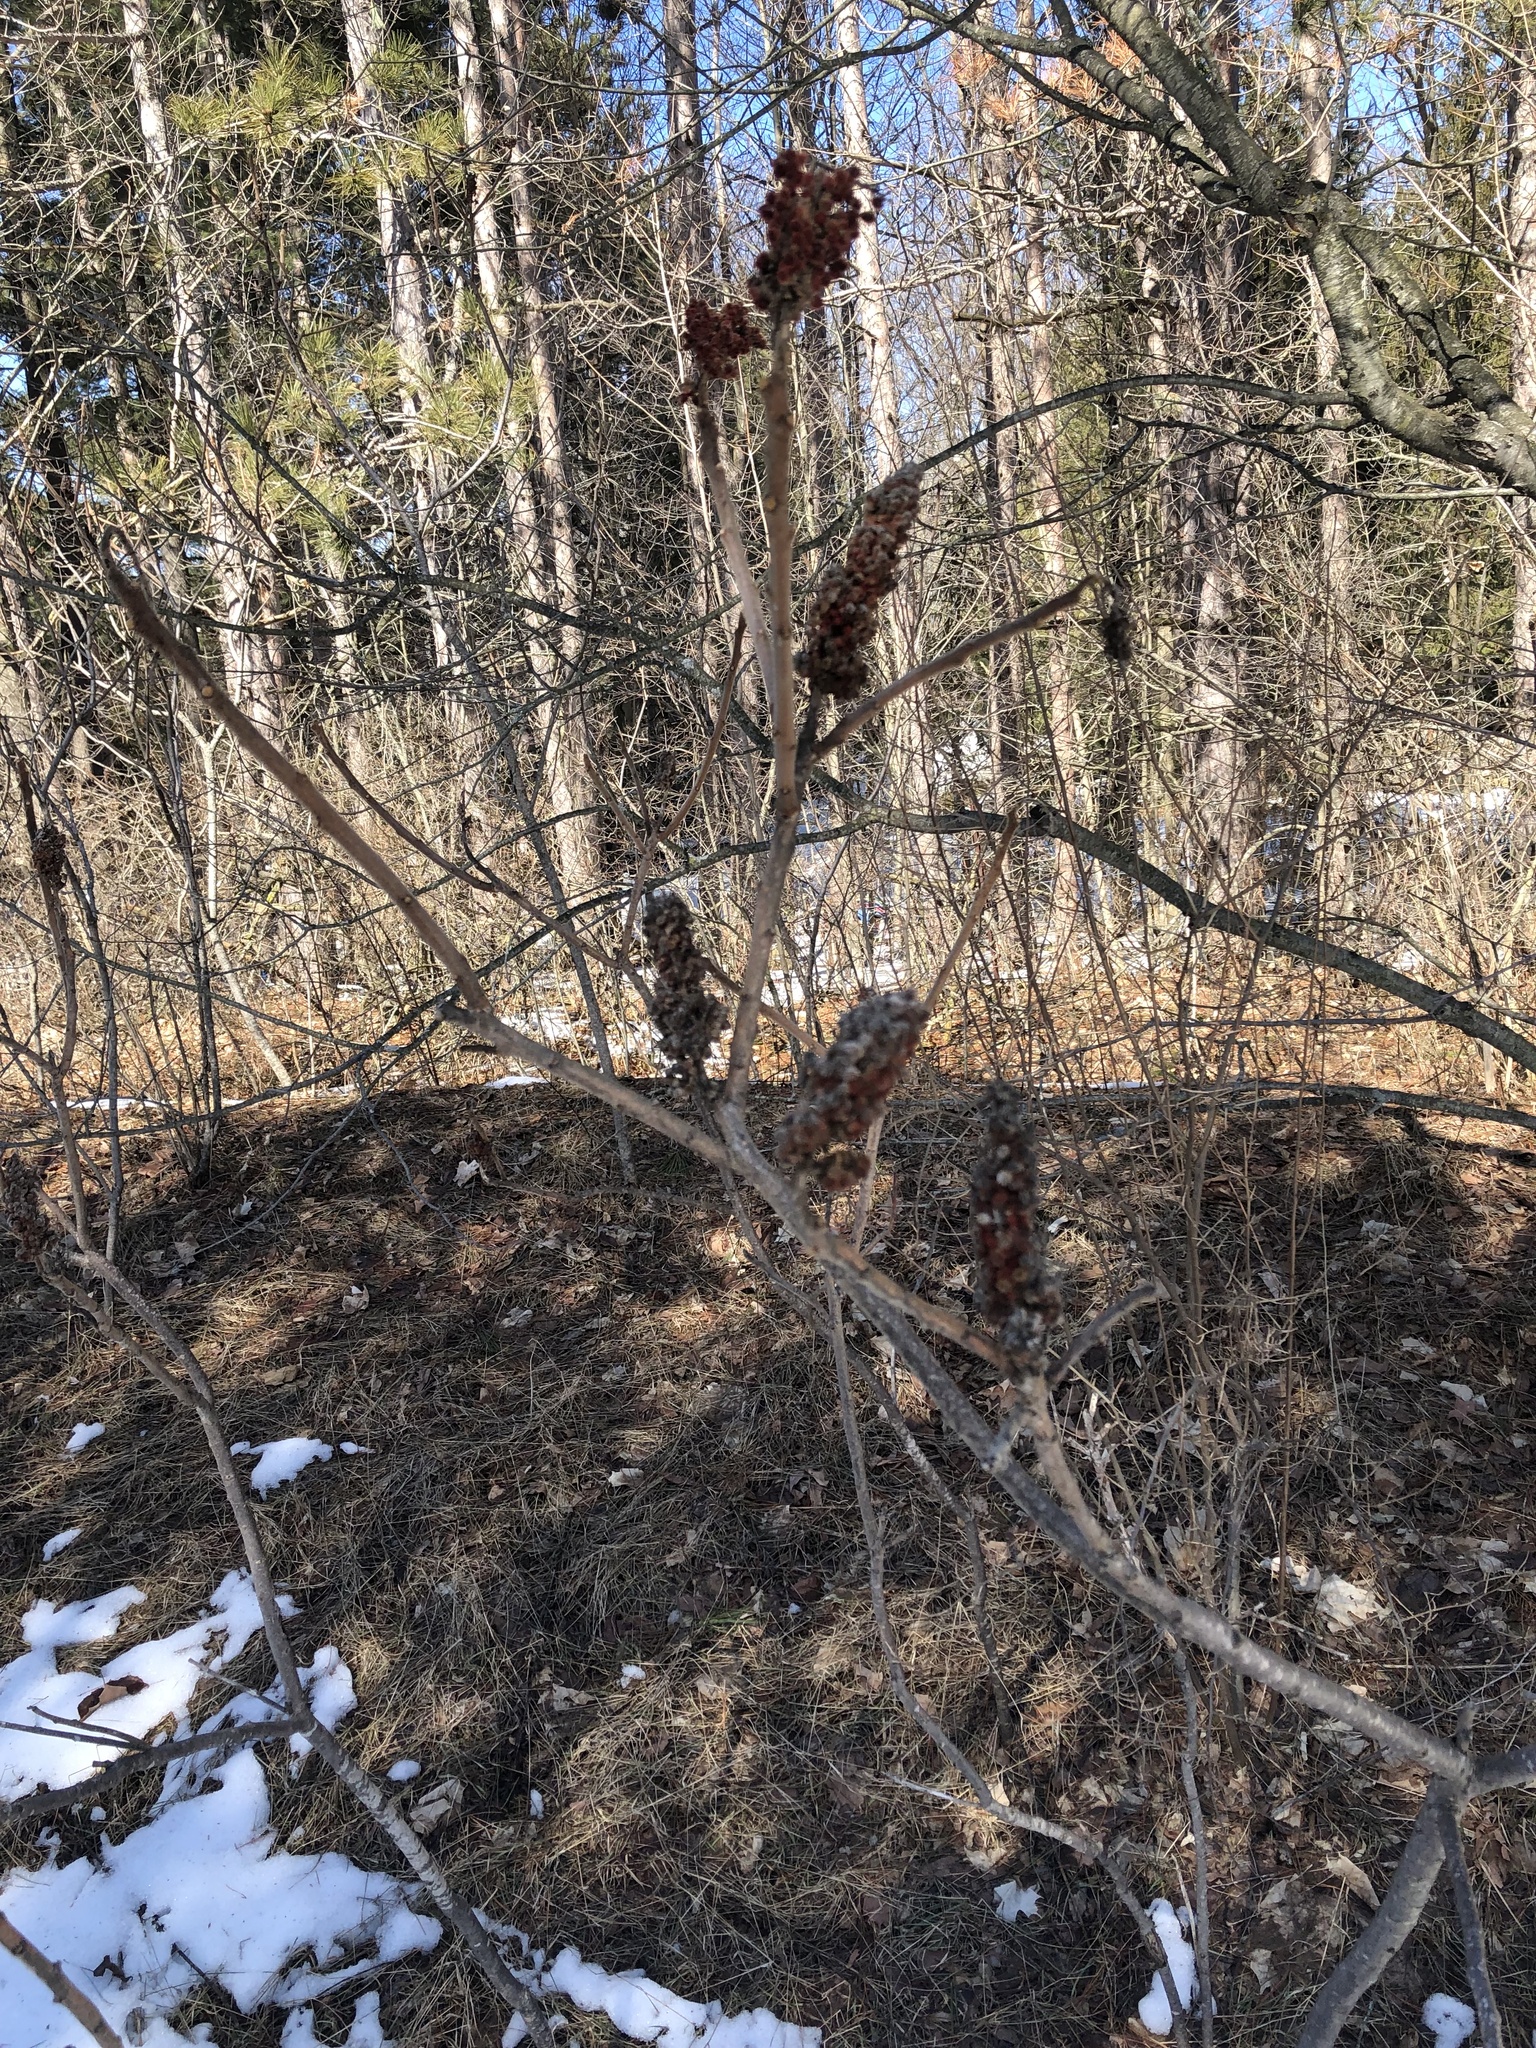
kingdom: Plantae
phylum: Tracheophyta
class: Magnoliopsida
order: Sapindales
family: Anacardiaceae
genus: Rhus
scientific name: Rhus typhina
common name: Staghorn sumac
